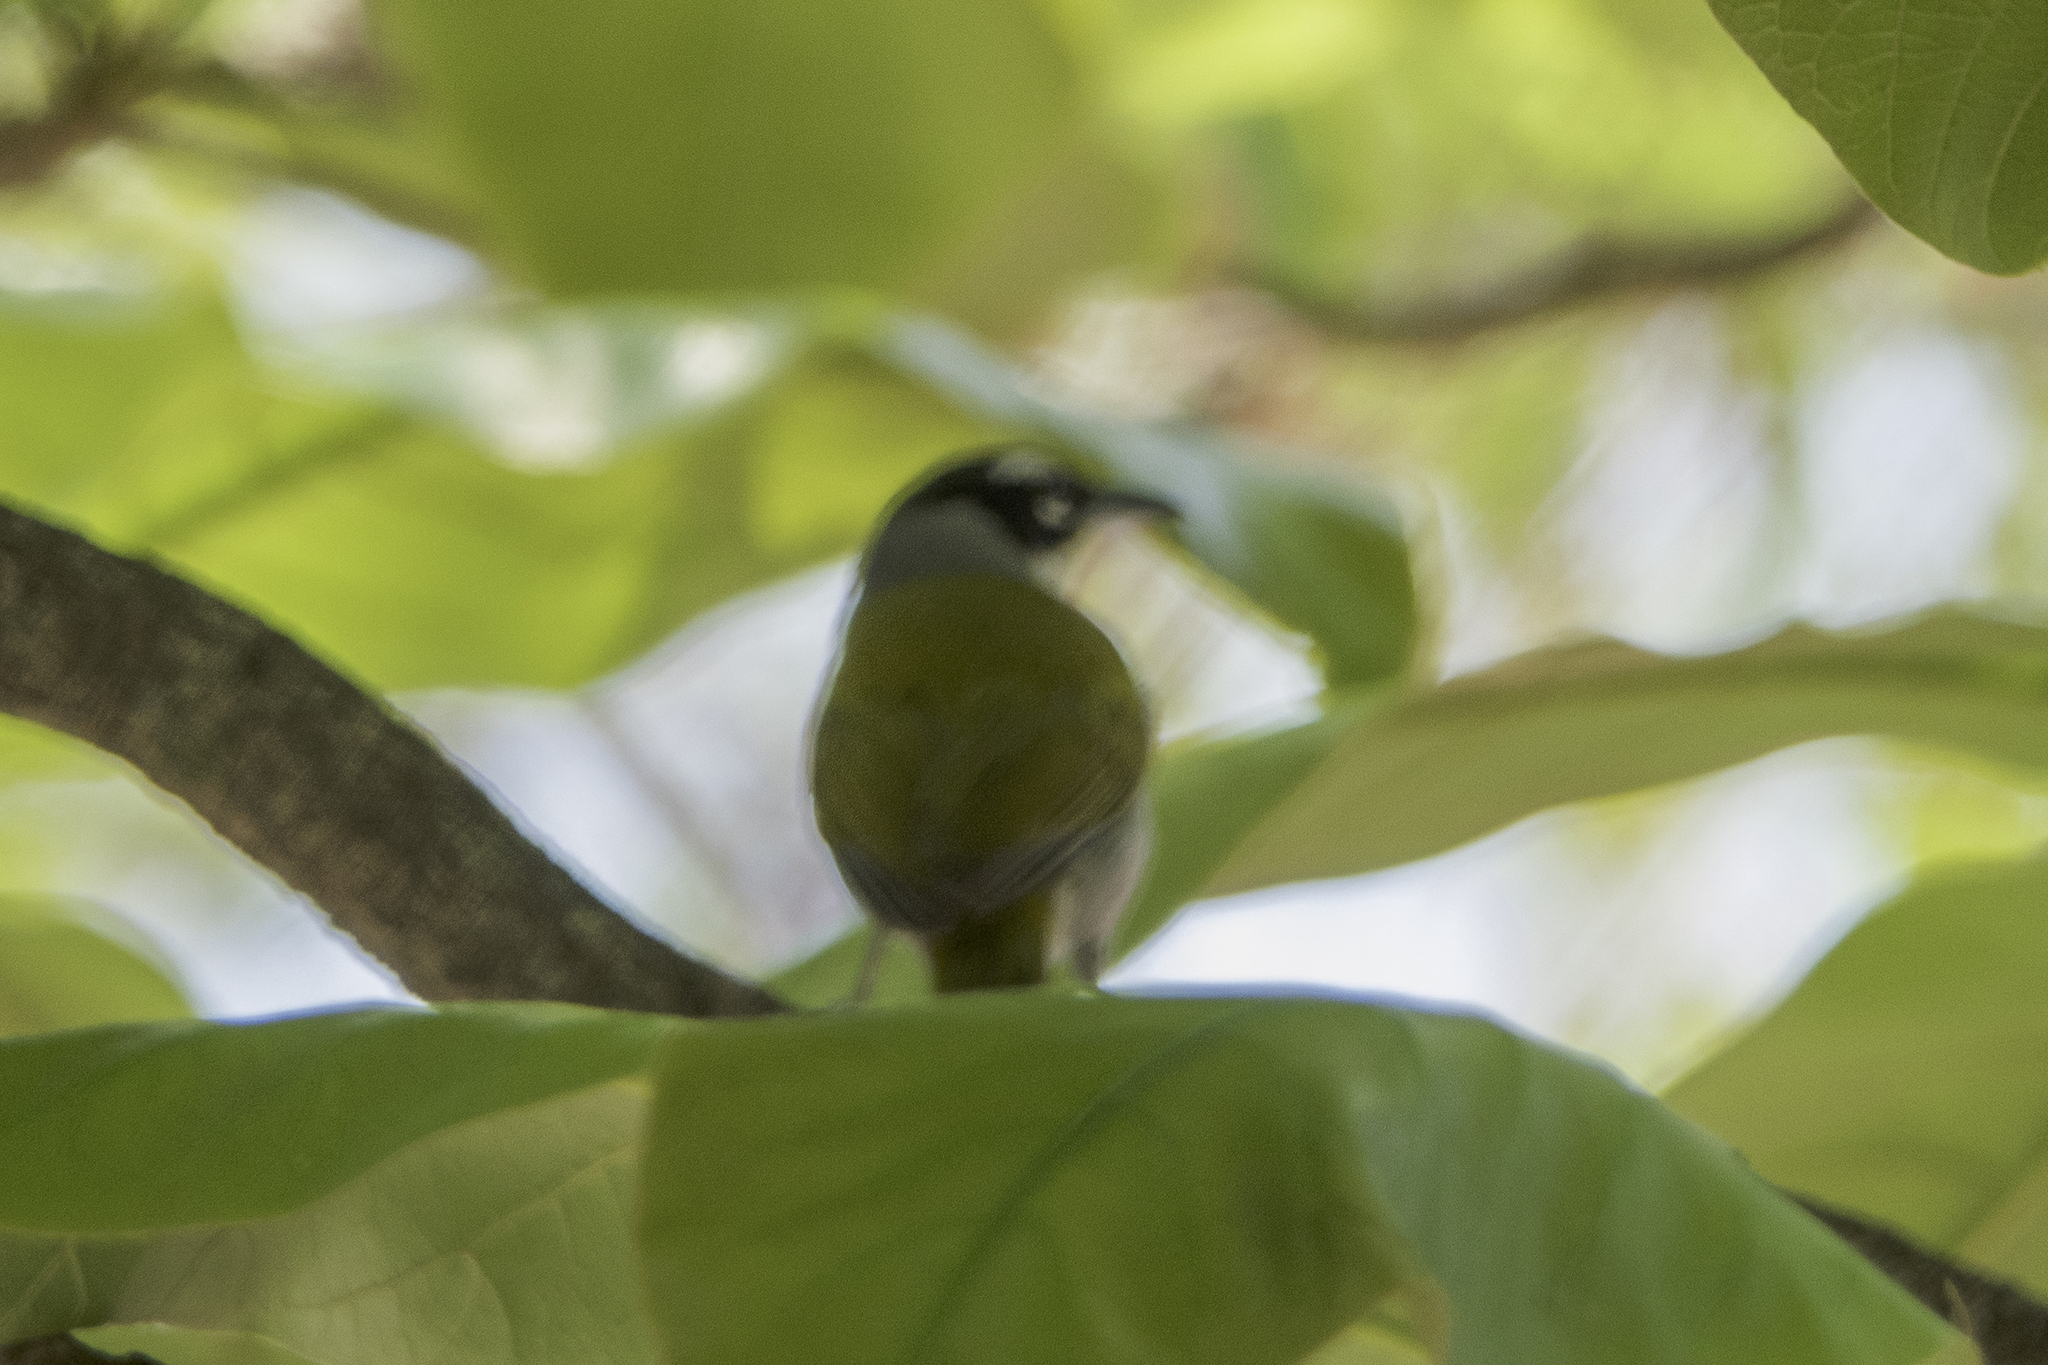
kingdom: Animalia
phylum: Chordata
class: Aves
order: Passeriformes
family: Phaenicophilidae
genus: Phaenicophilus
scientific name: Phaenicophilus palmarum
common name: Black-crowned palm-tanager
